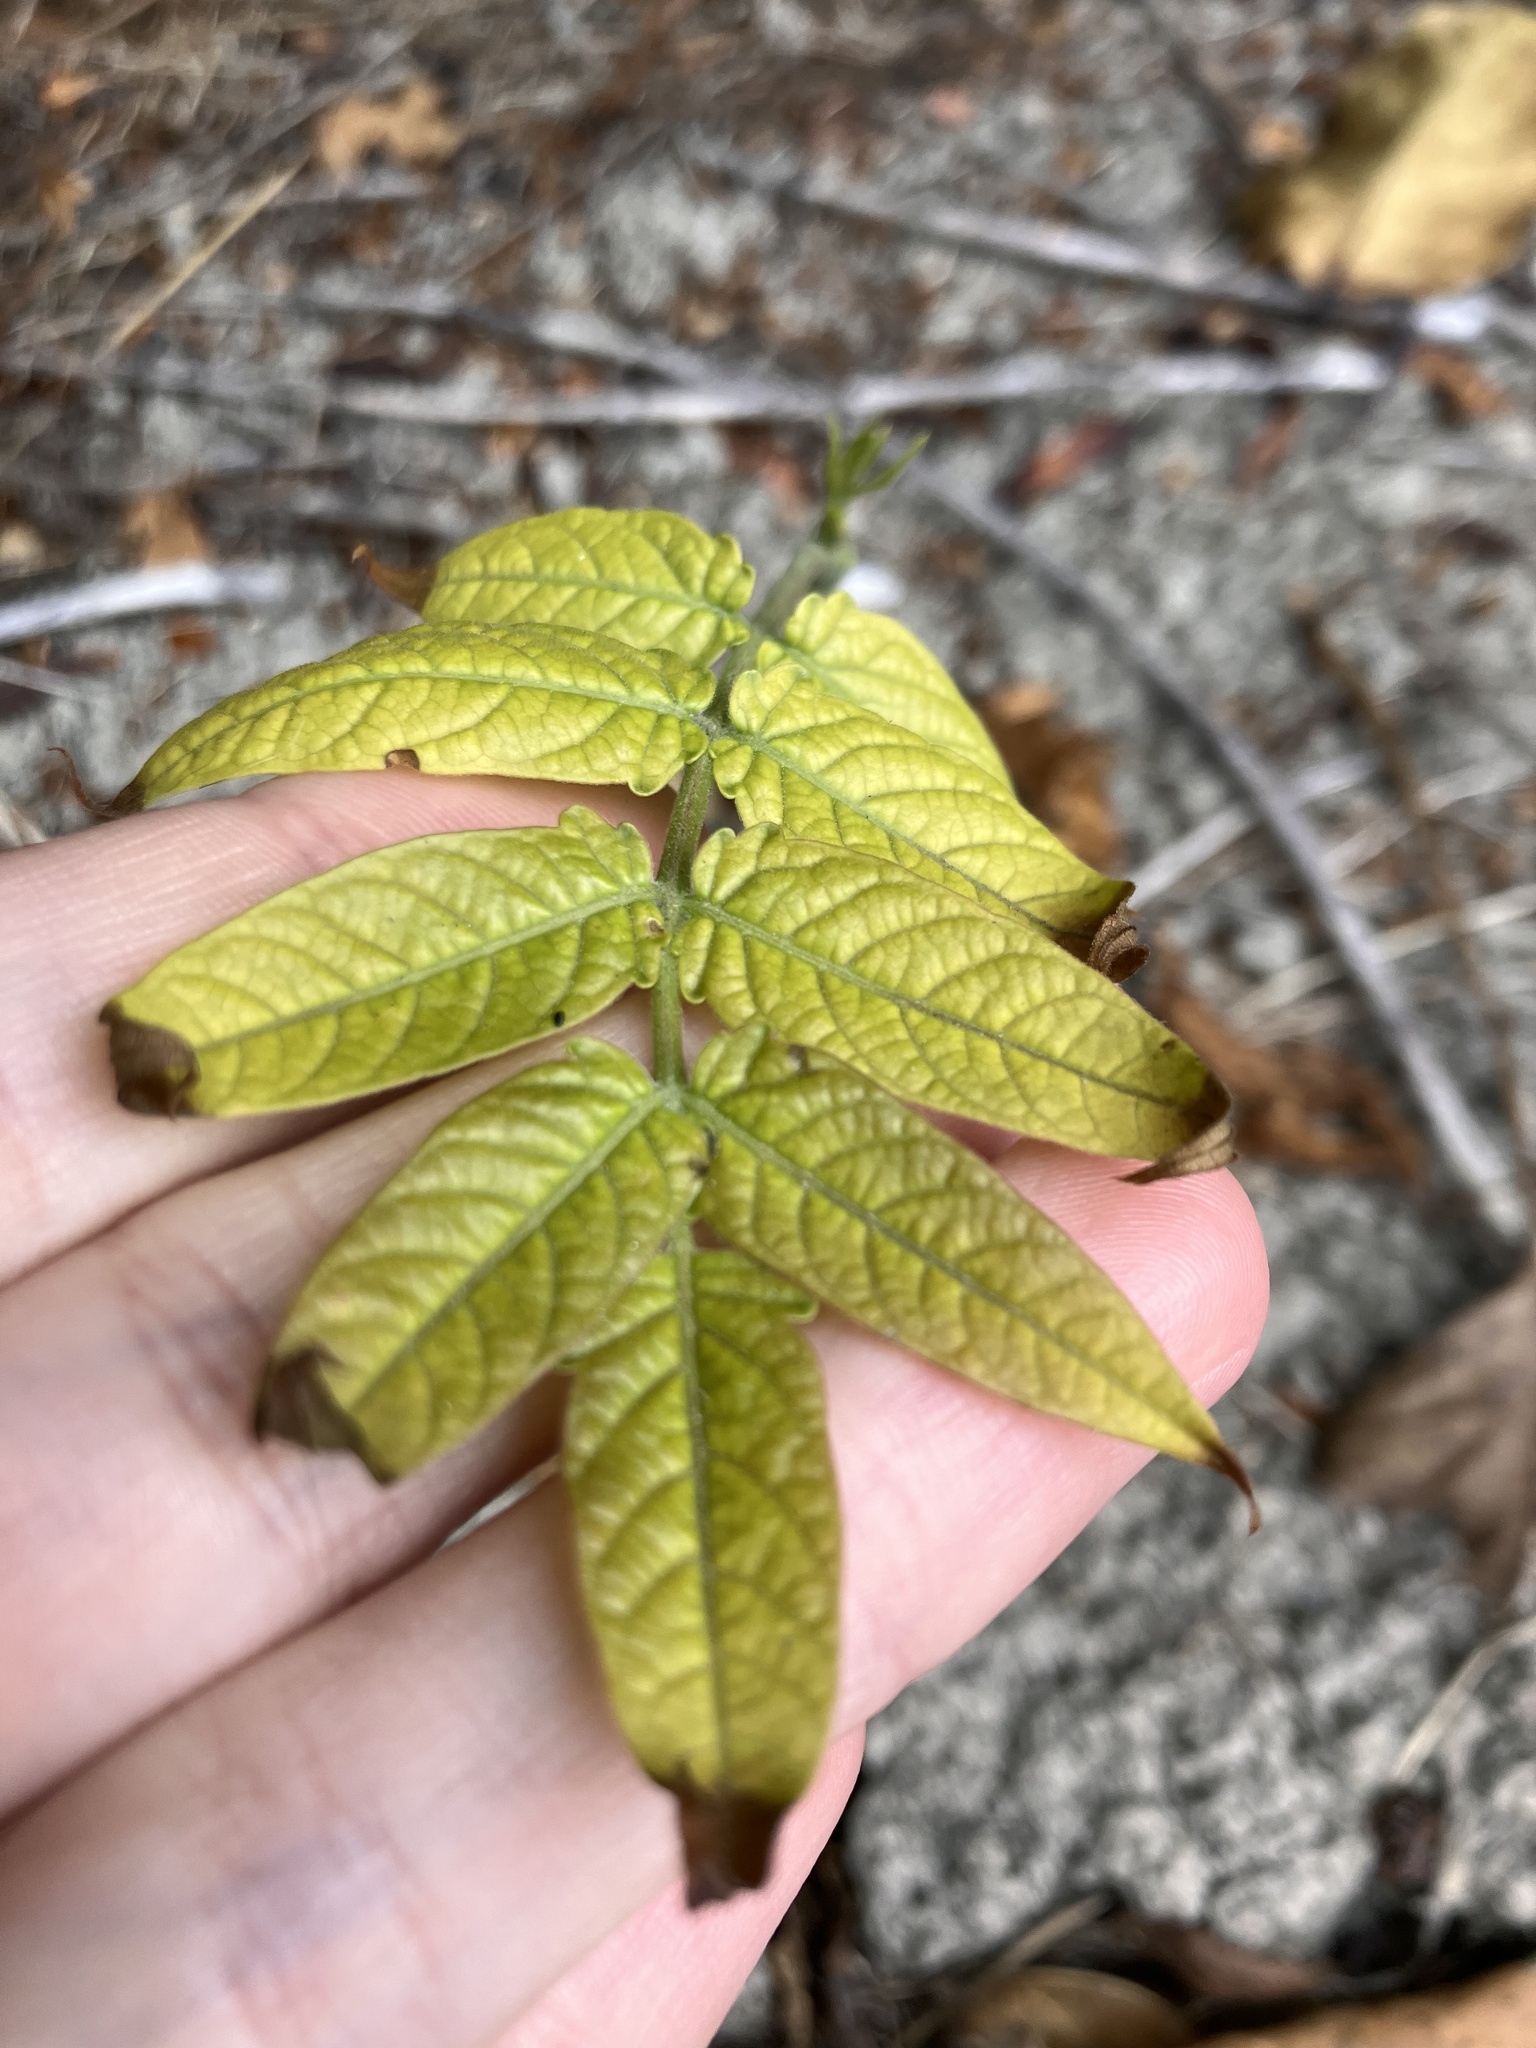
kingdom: Plantae
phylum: Tracheophyta
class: Magnoliopsida
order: Sapindales
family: Simaroubaceae
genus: Ailanthus
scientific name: Ailanthus altissima
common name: Tree-of-heaven
